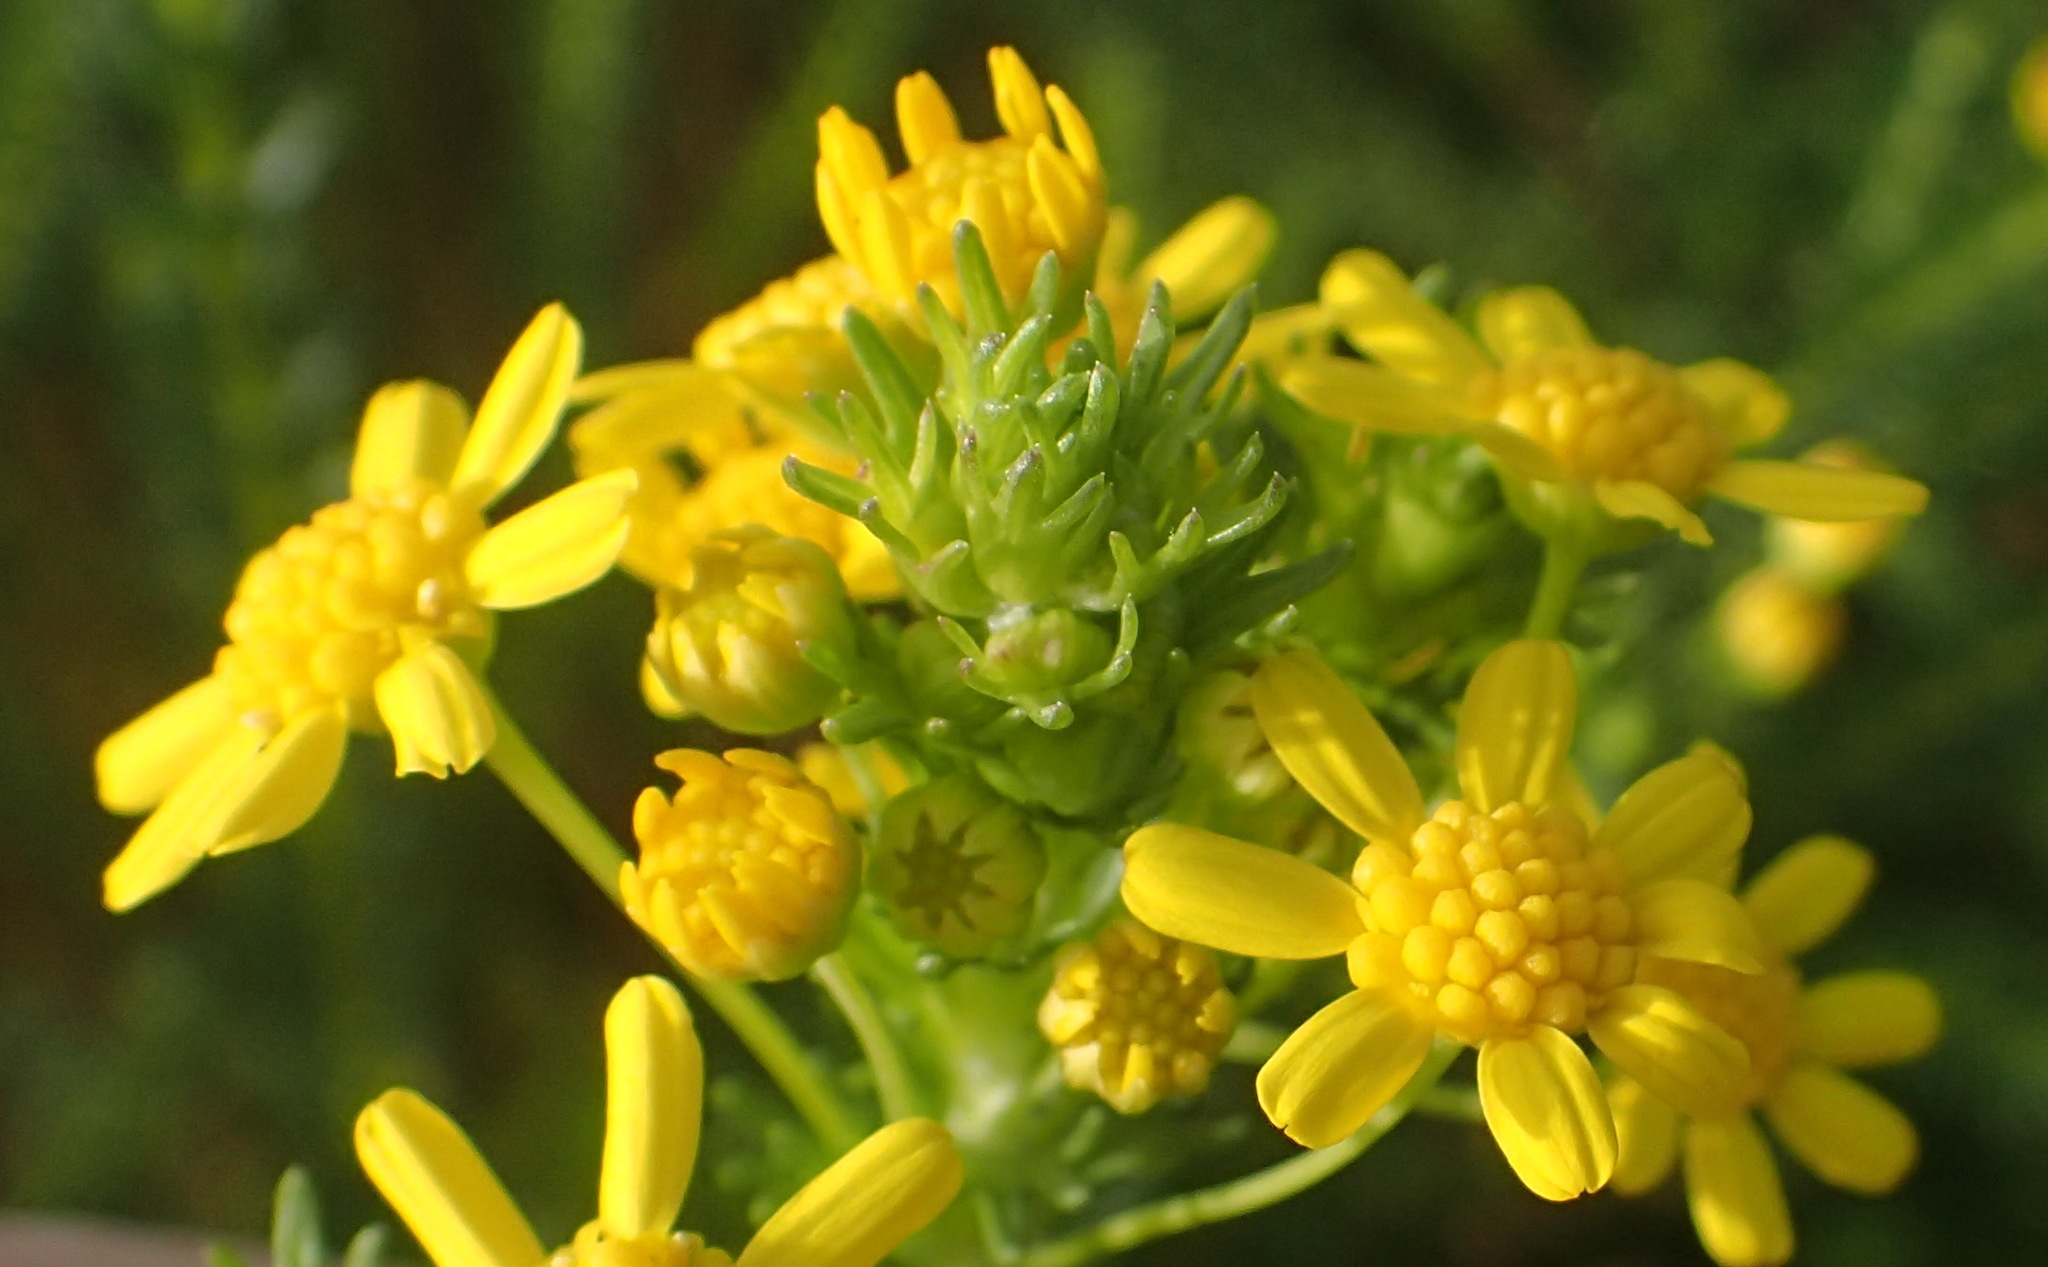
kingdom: Plantae
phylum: Tracheophyta
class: Magnoliopsida
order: Asterales
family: Asteraceae
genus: Euryops
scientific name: Euryops virgineus
